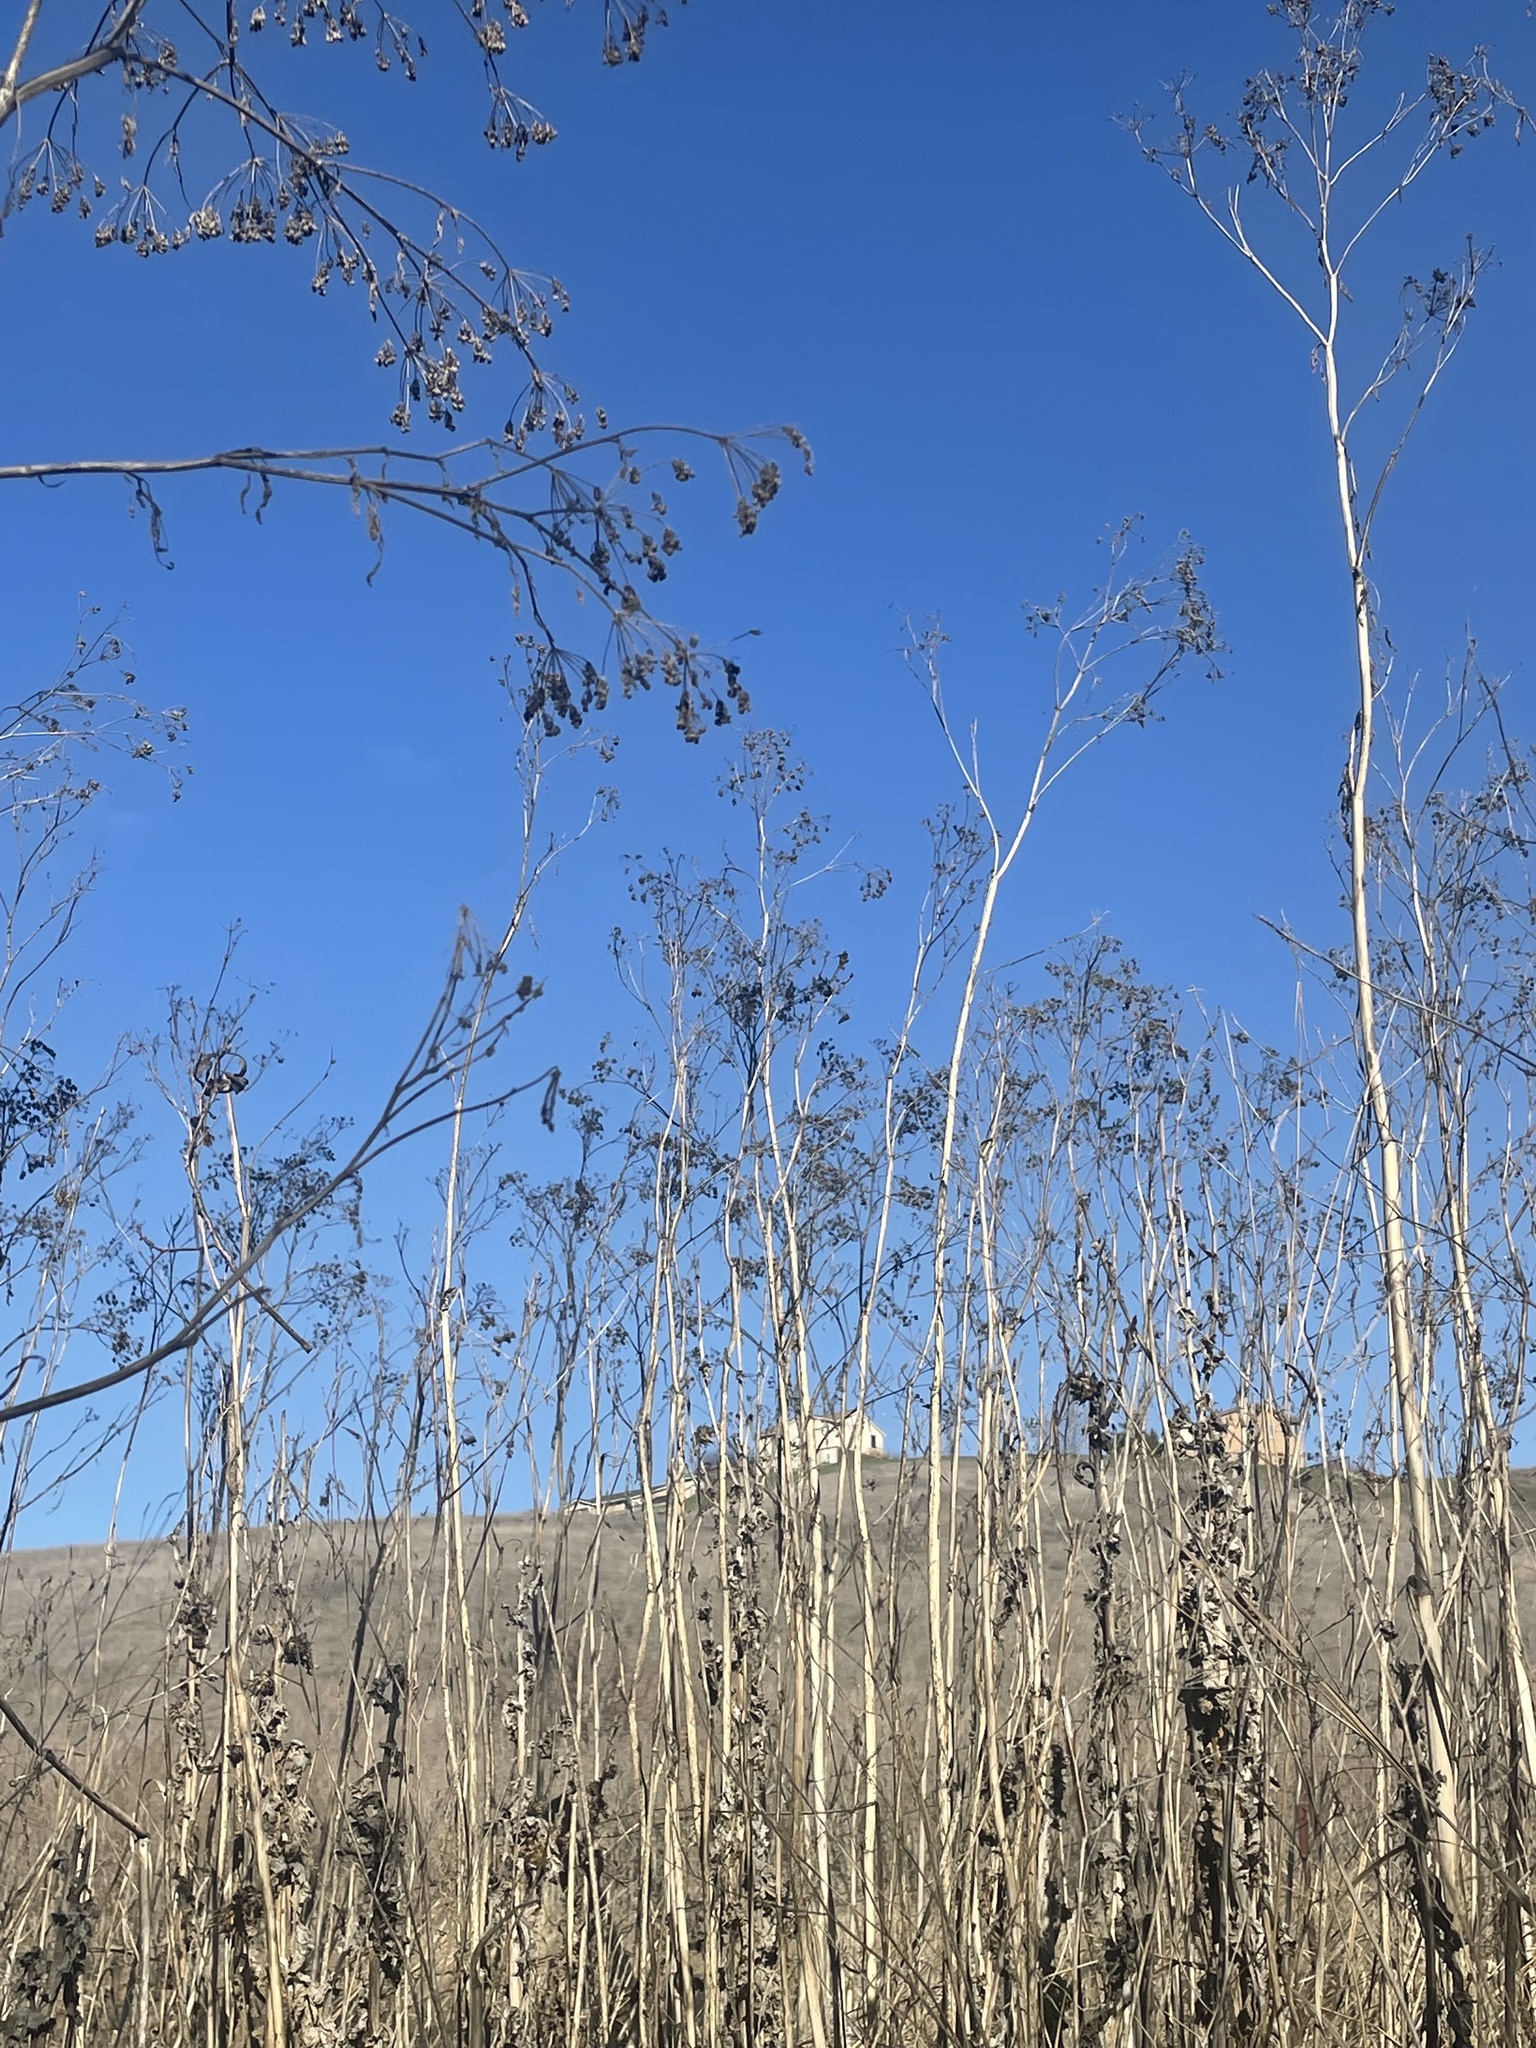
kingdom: Plantae
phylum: Tracheophyta
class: Magnoliopsida
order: Apiales
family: Apiaceae
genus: Conium
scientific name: Conium maculatum
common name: Hemlock
